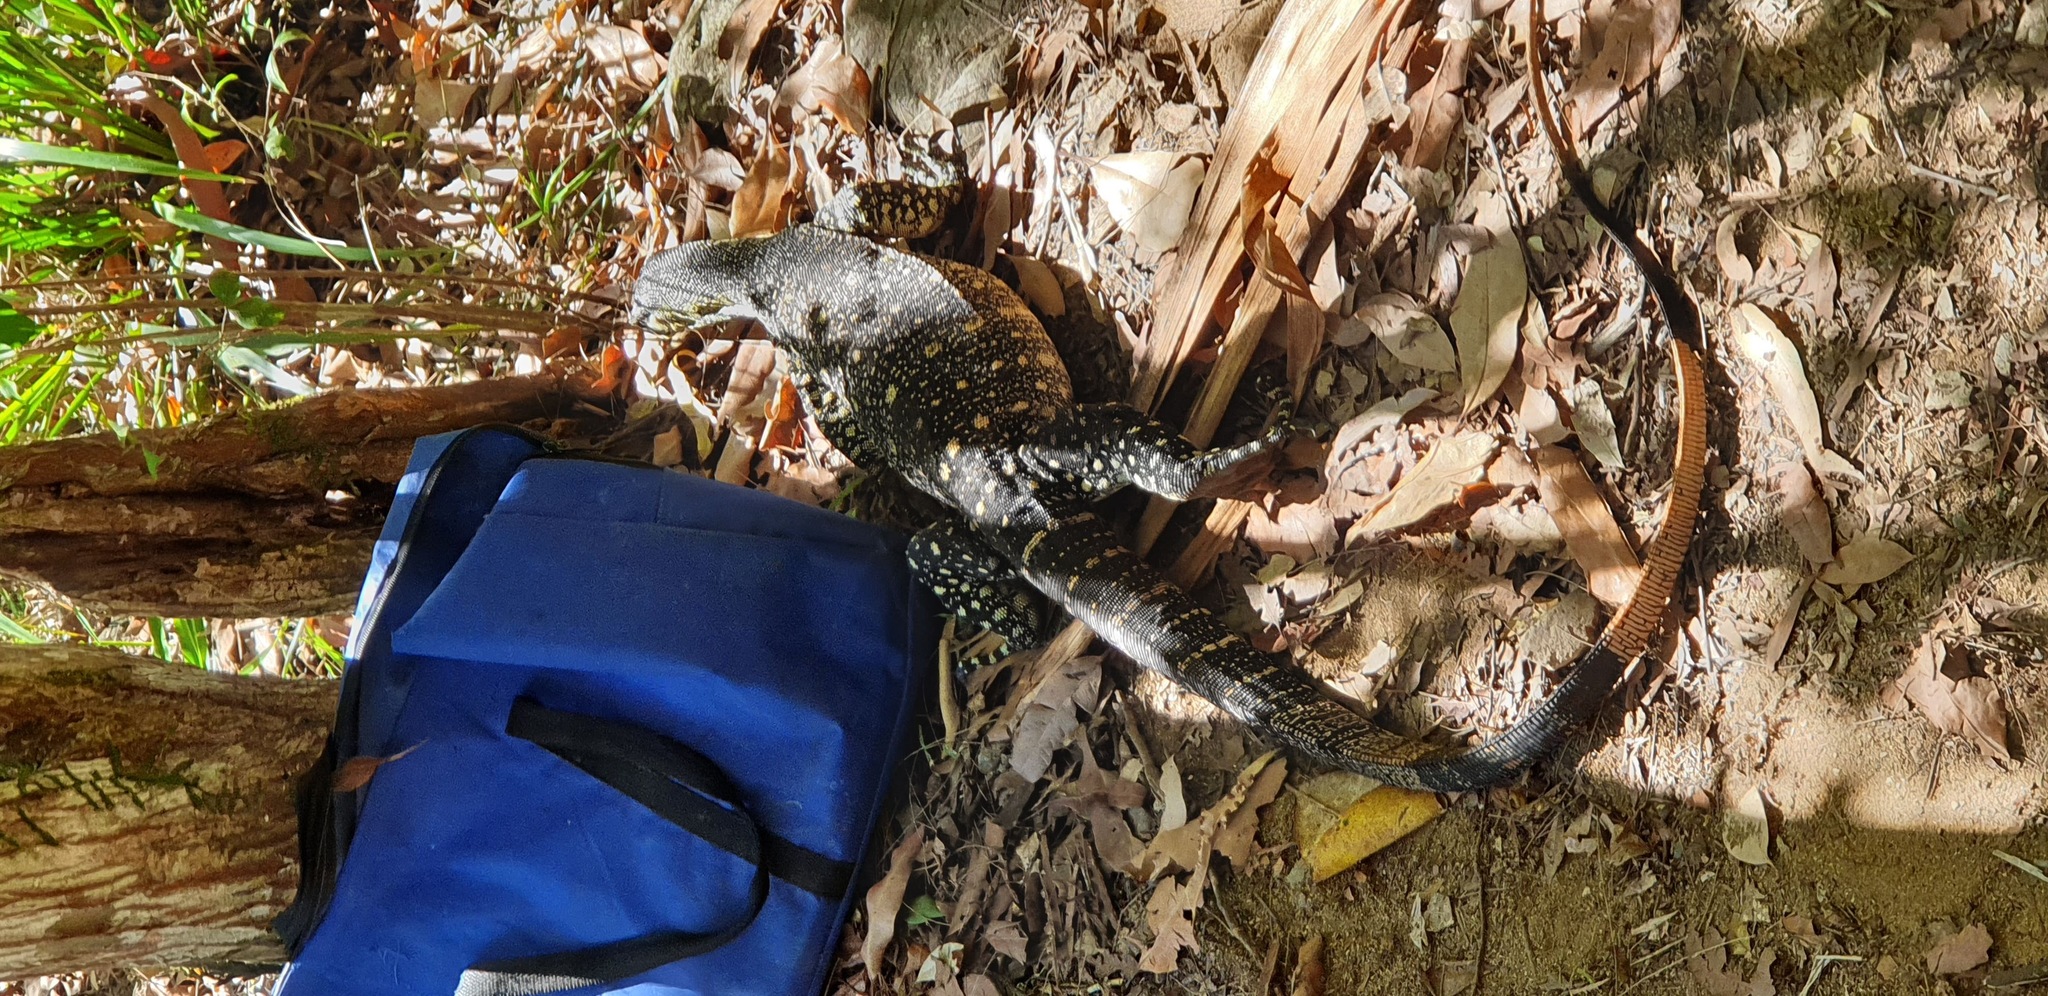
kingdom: Animalia
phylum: Chordata
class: Squamata
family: Varanidae
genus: Varanus
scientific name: Varanus varius
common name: Lace monitor
